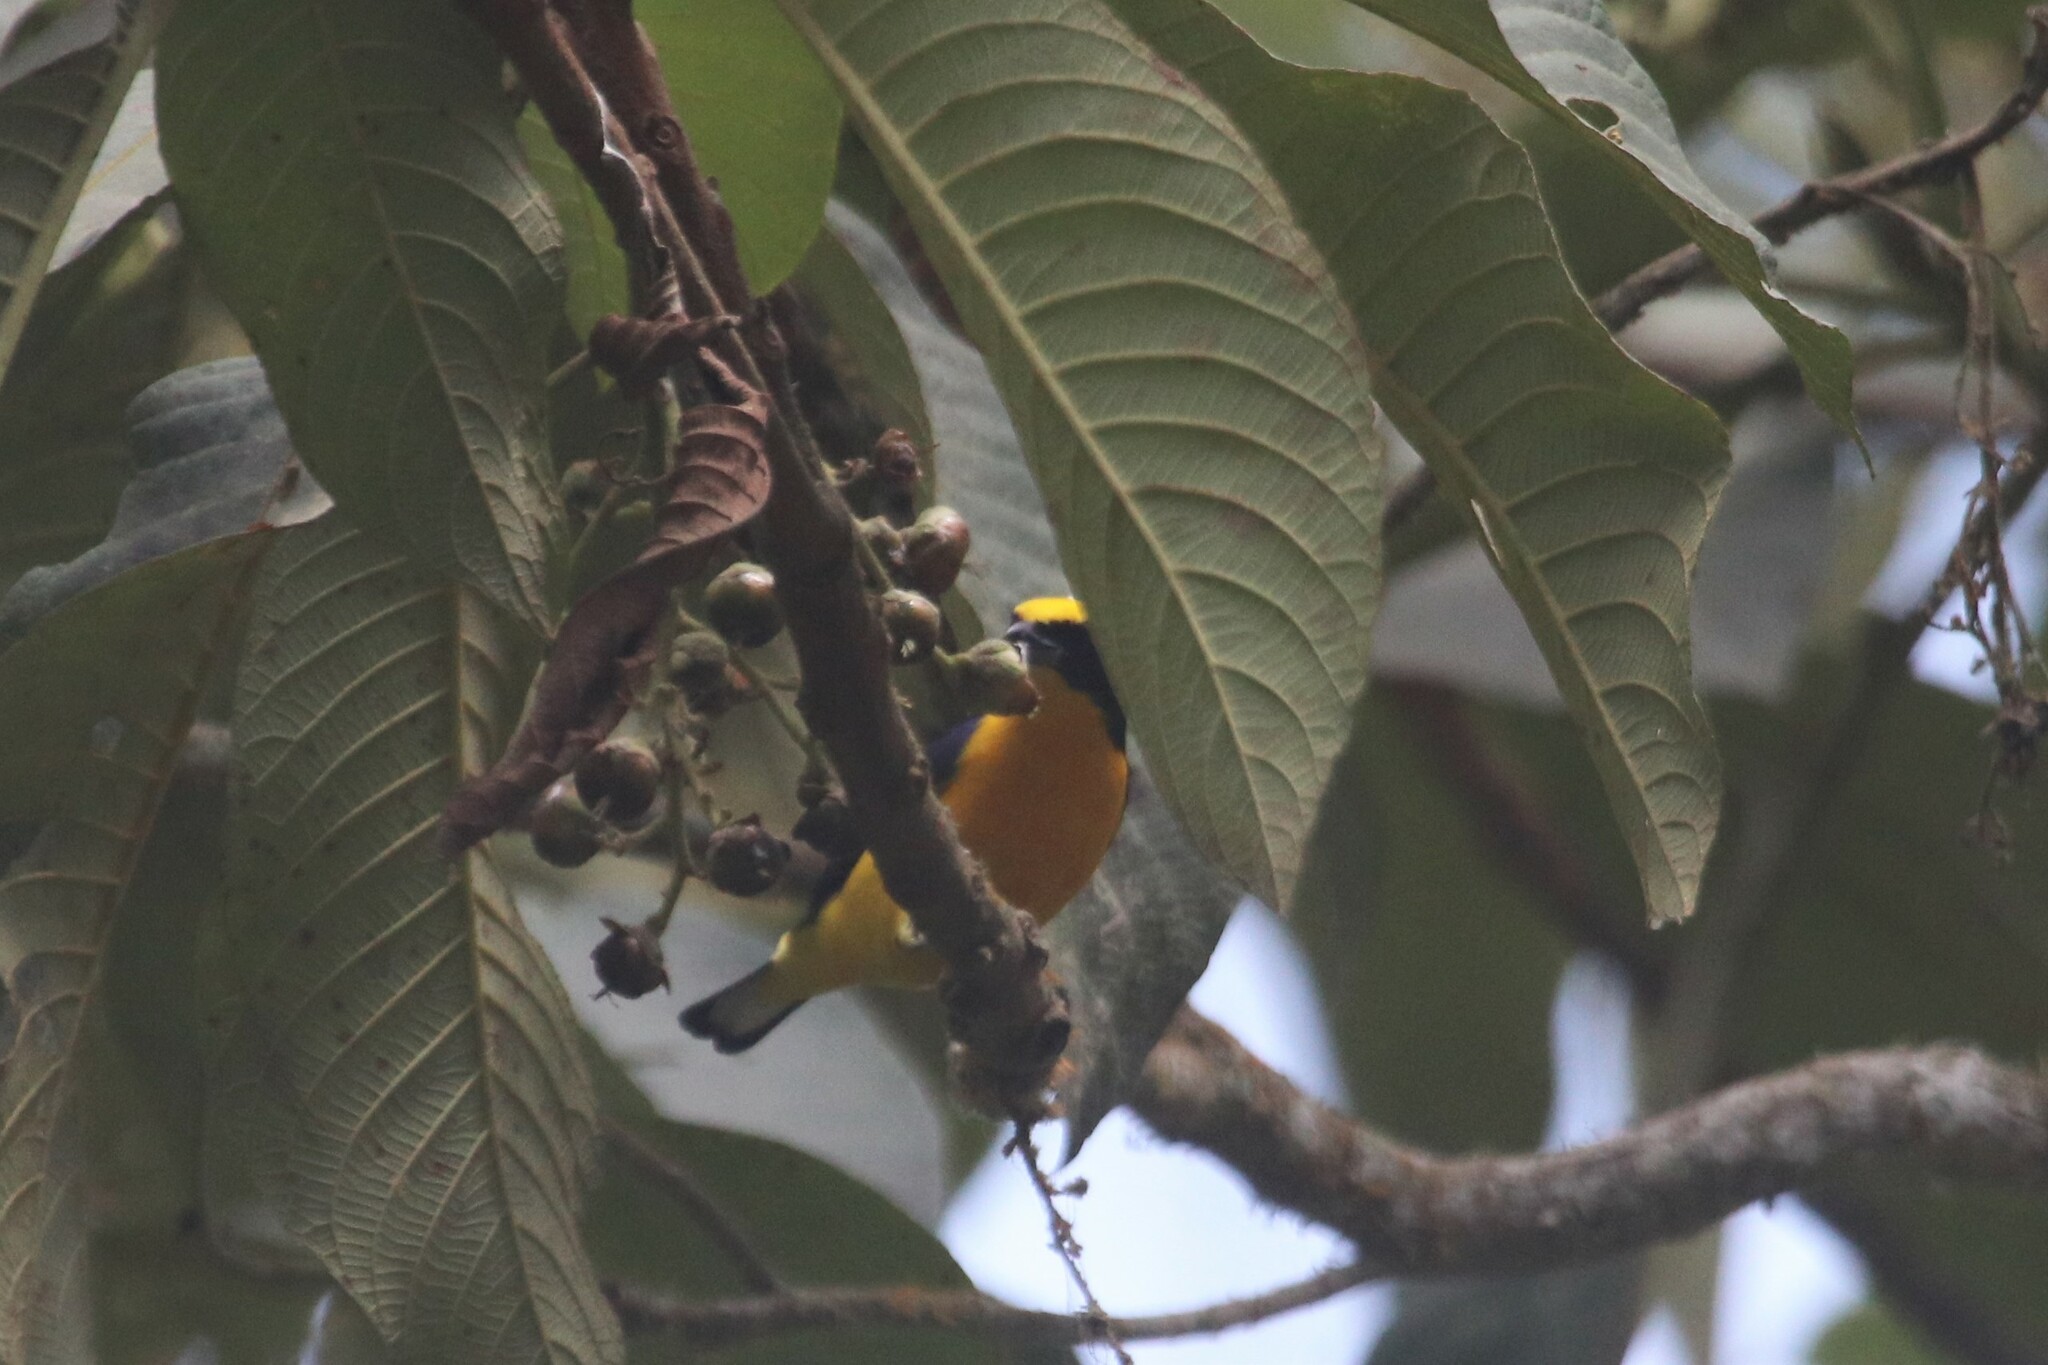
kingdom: Animalia
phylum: Chordata
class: Aves
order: Passeriformes
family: Fringillidae
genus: Euphonia
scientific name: Euphonia laniirostris
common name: Thick-billed euphonia
